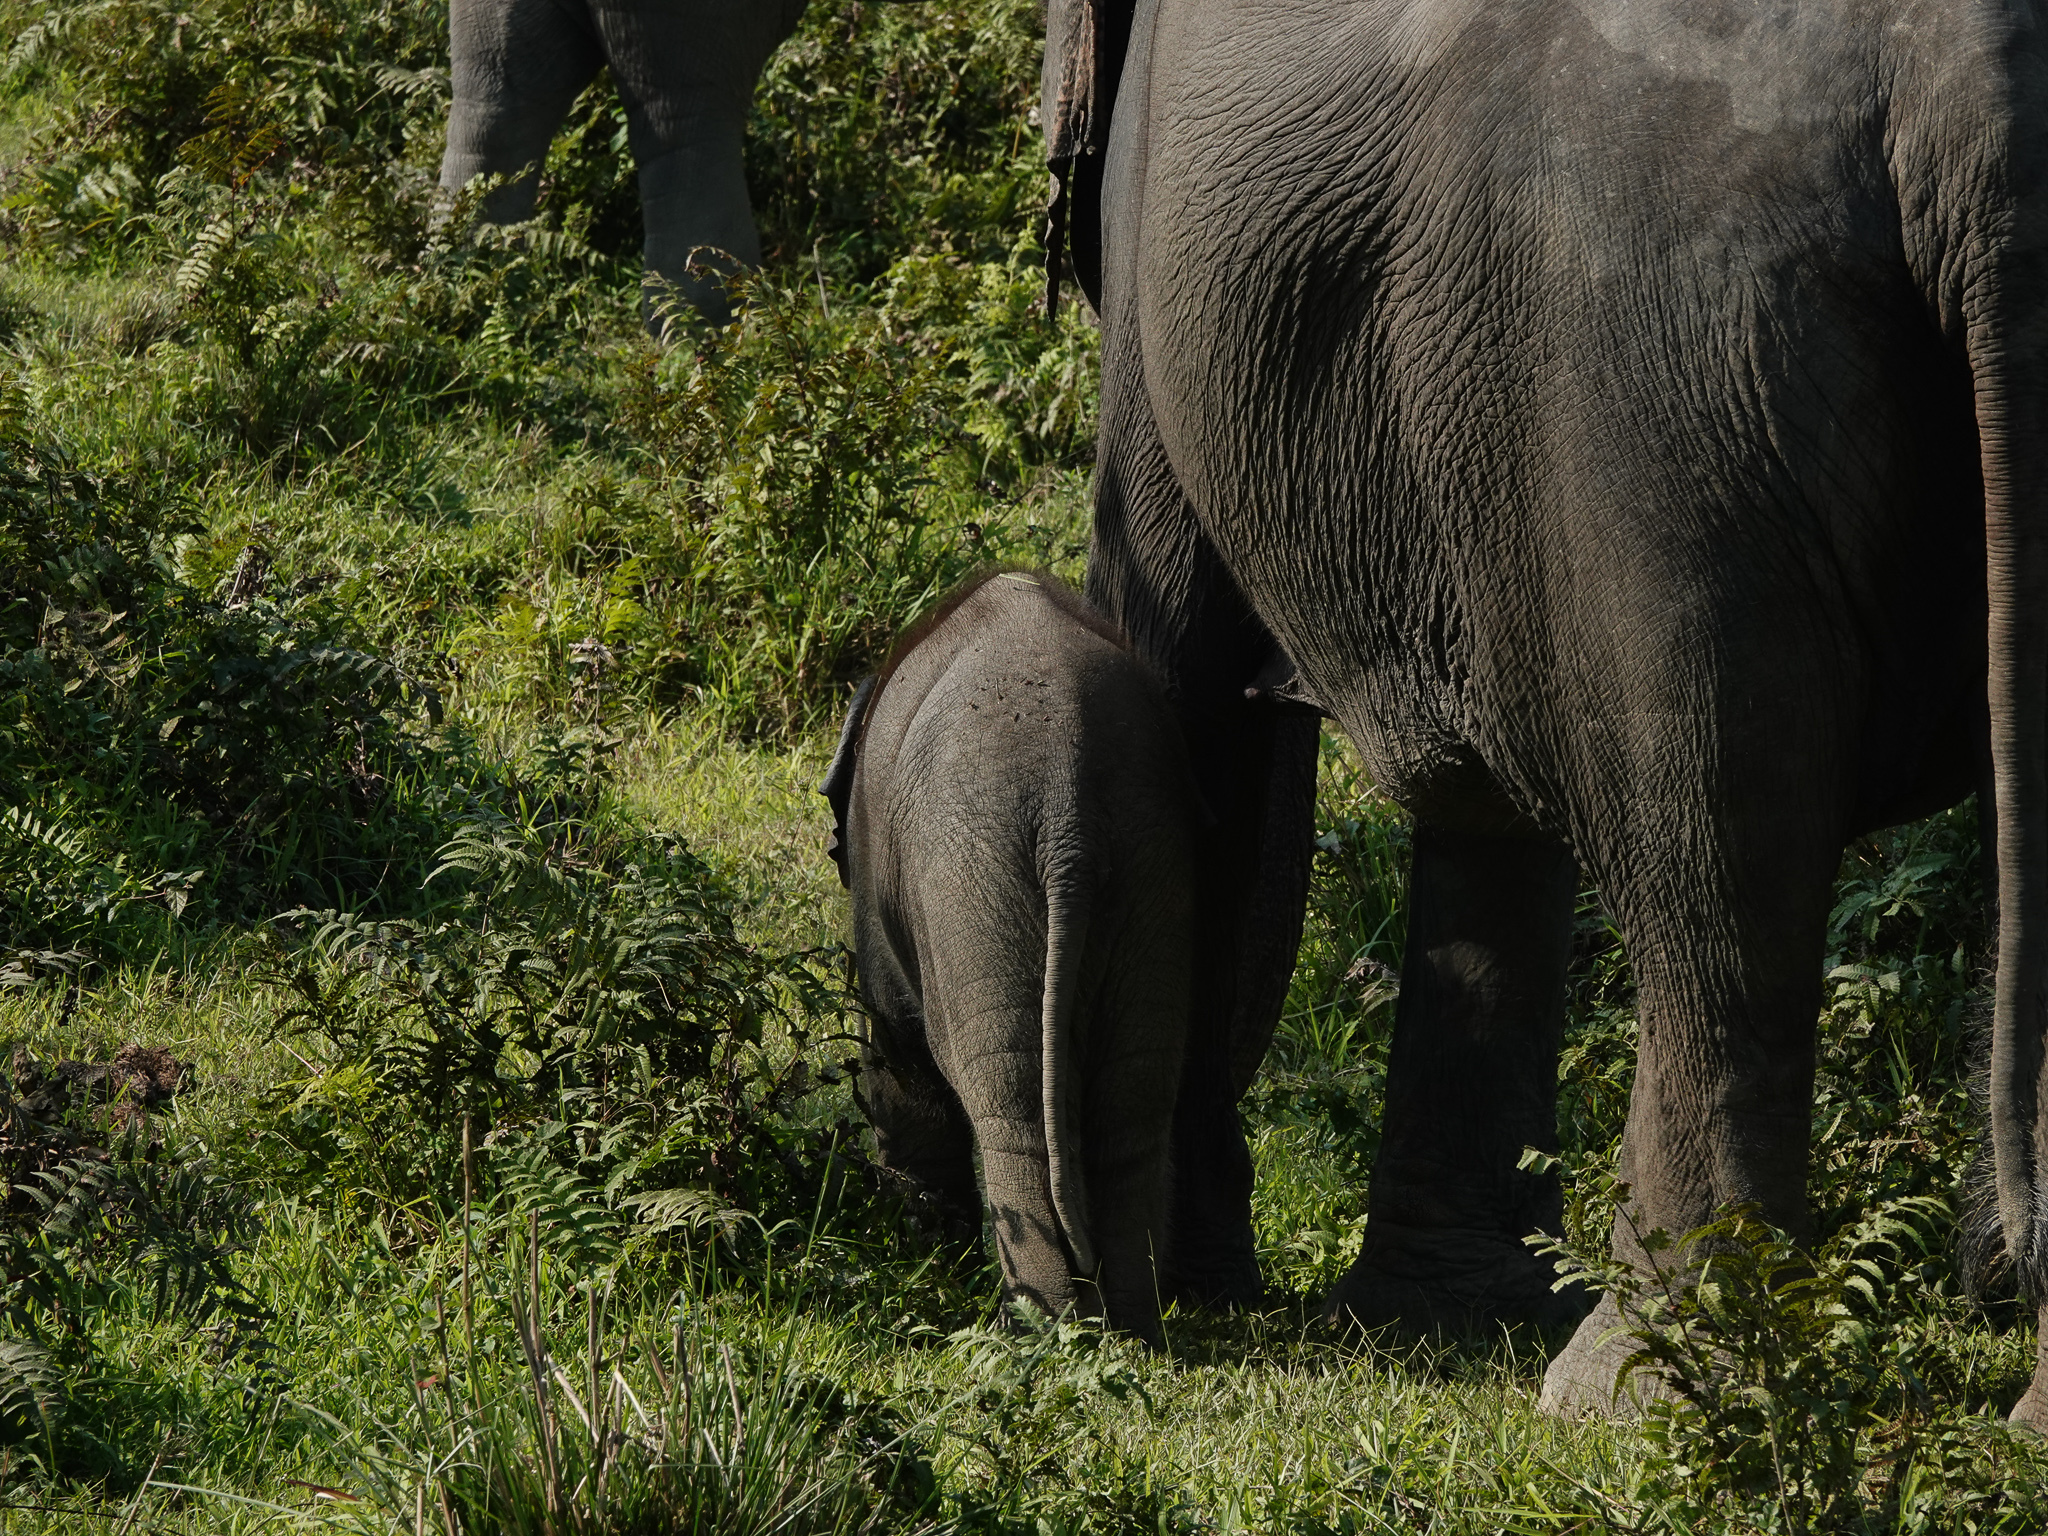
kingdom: Animalia
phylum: Chordata
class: Mammalia
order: Proboscidea
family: Elephantidae
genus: Elephas
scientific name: Elephas maximus
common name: Asian elephant
